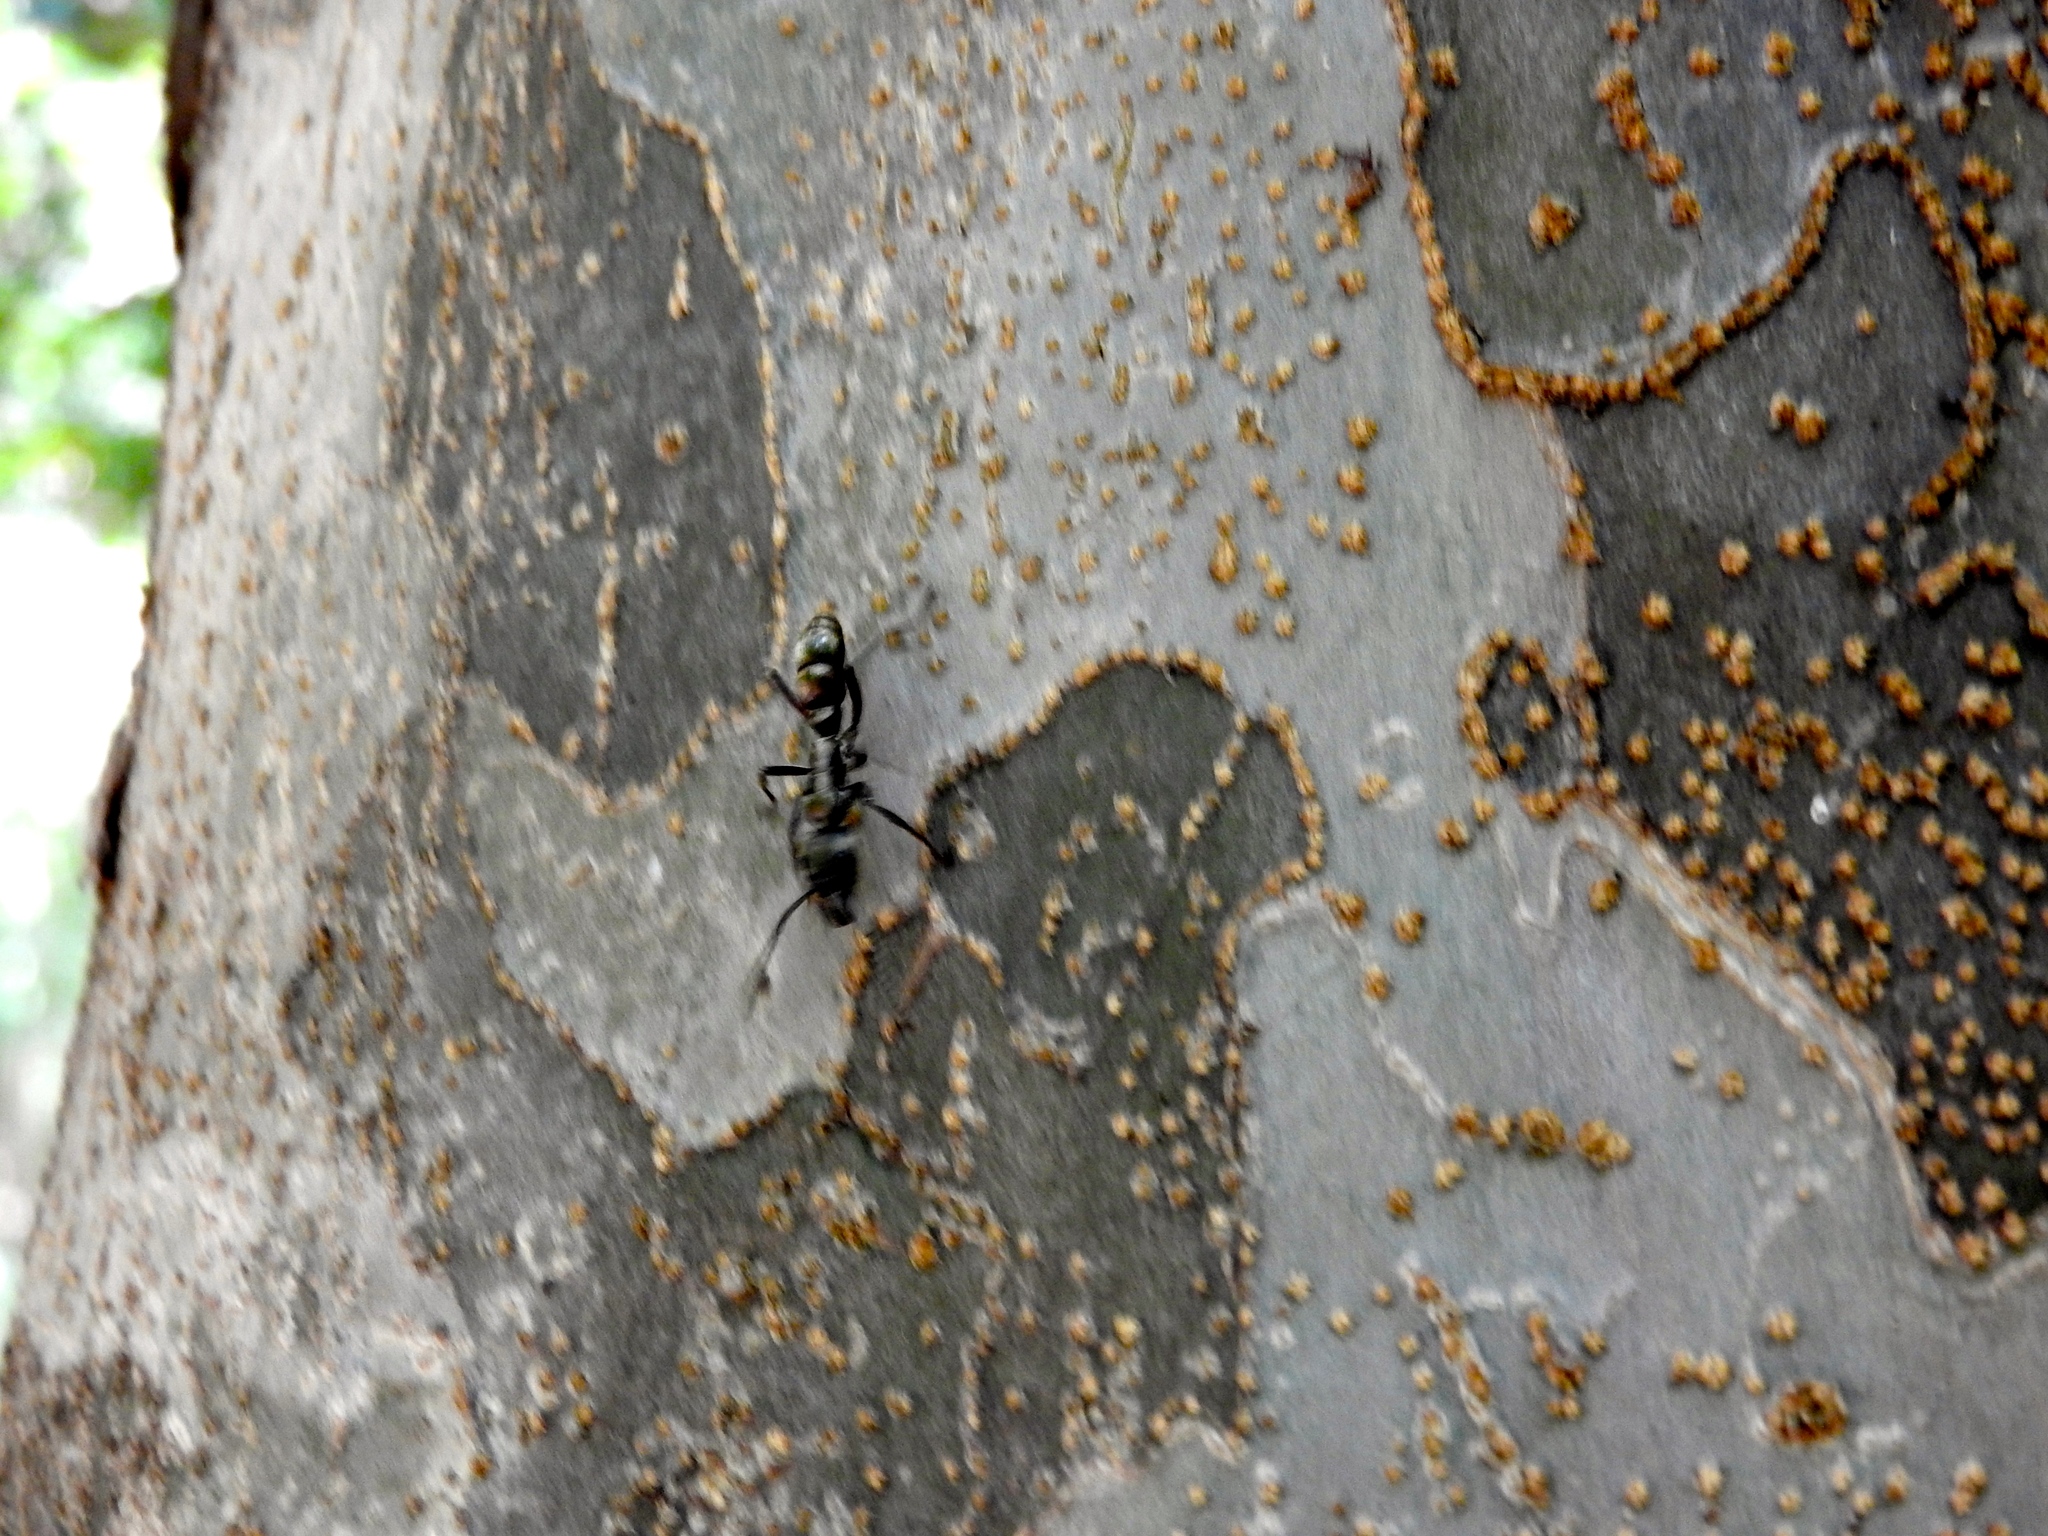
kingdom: Animalia
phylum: Arthropoda
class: Insecta
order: Hymenoptera
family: Formicidae
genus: Pachycondyla
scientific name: Pachycondyla villosa
